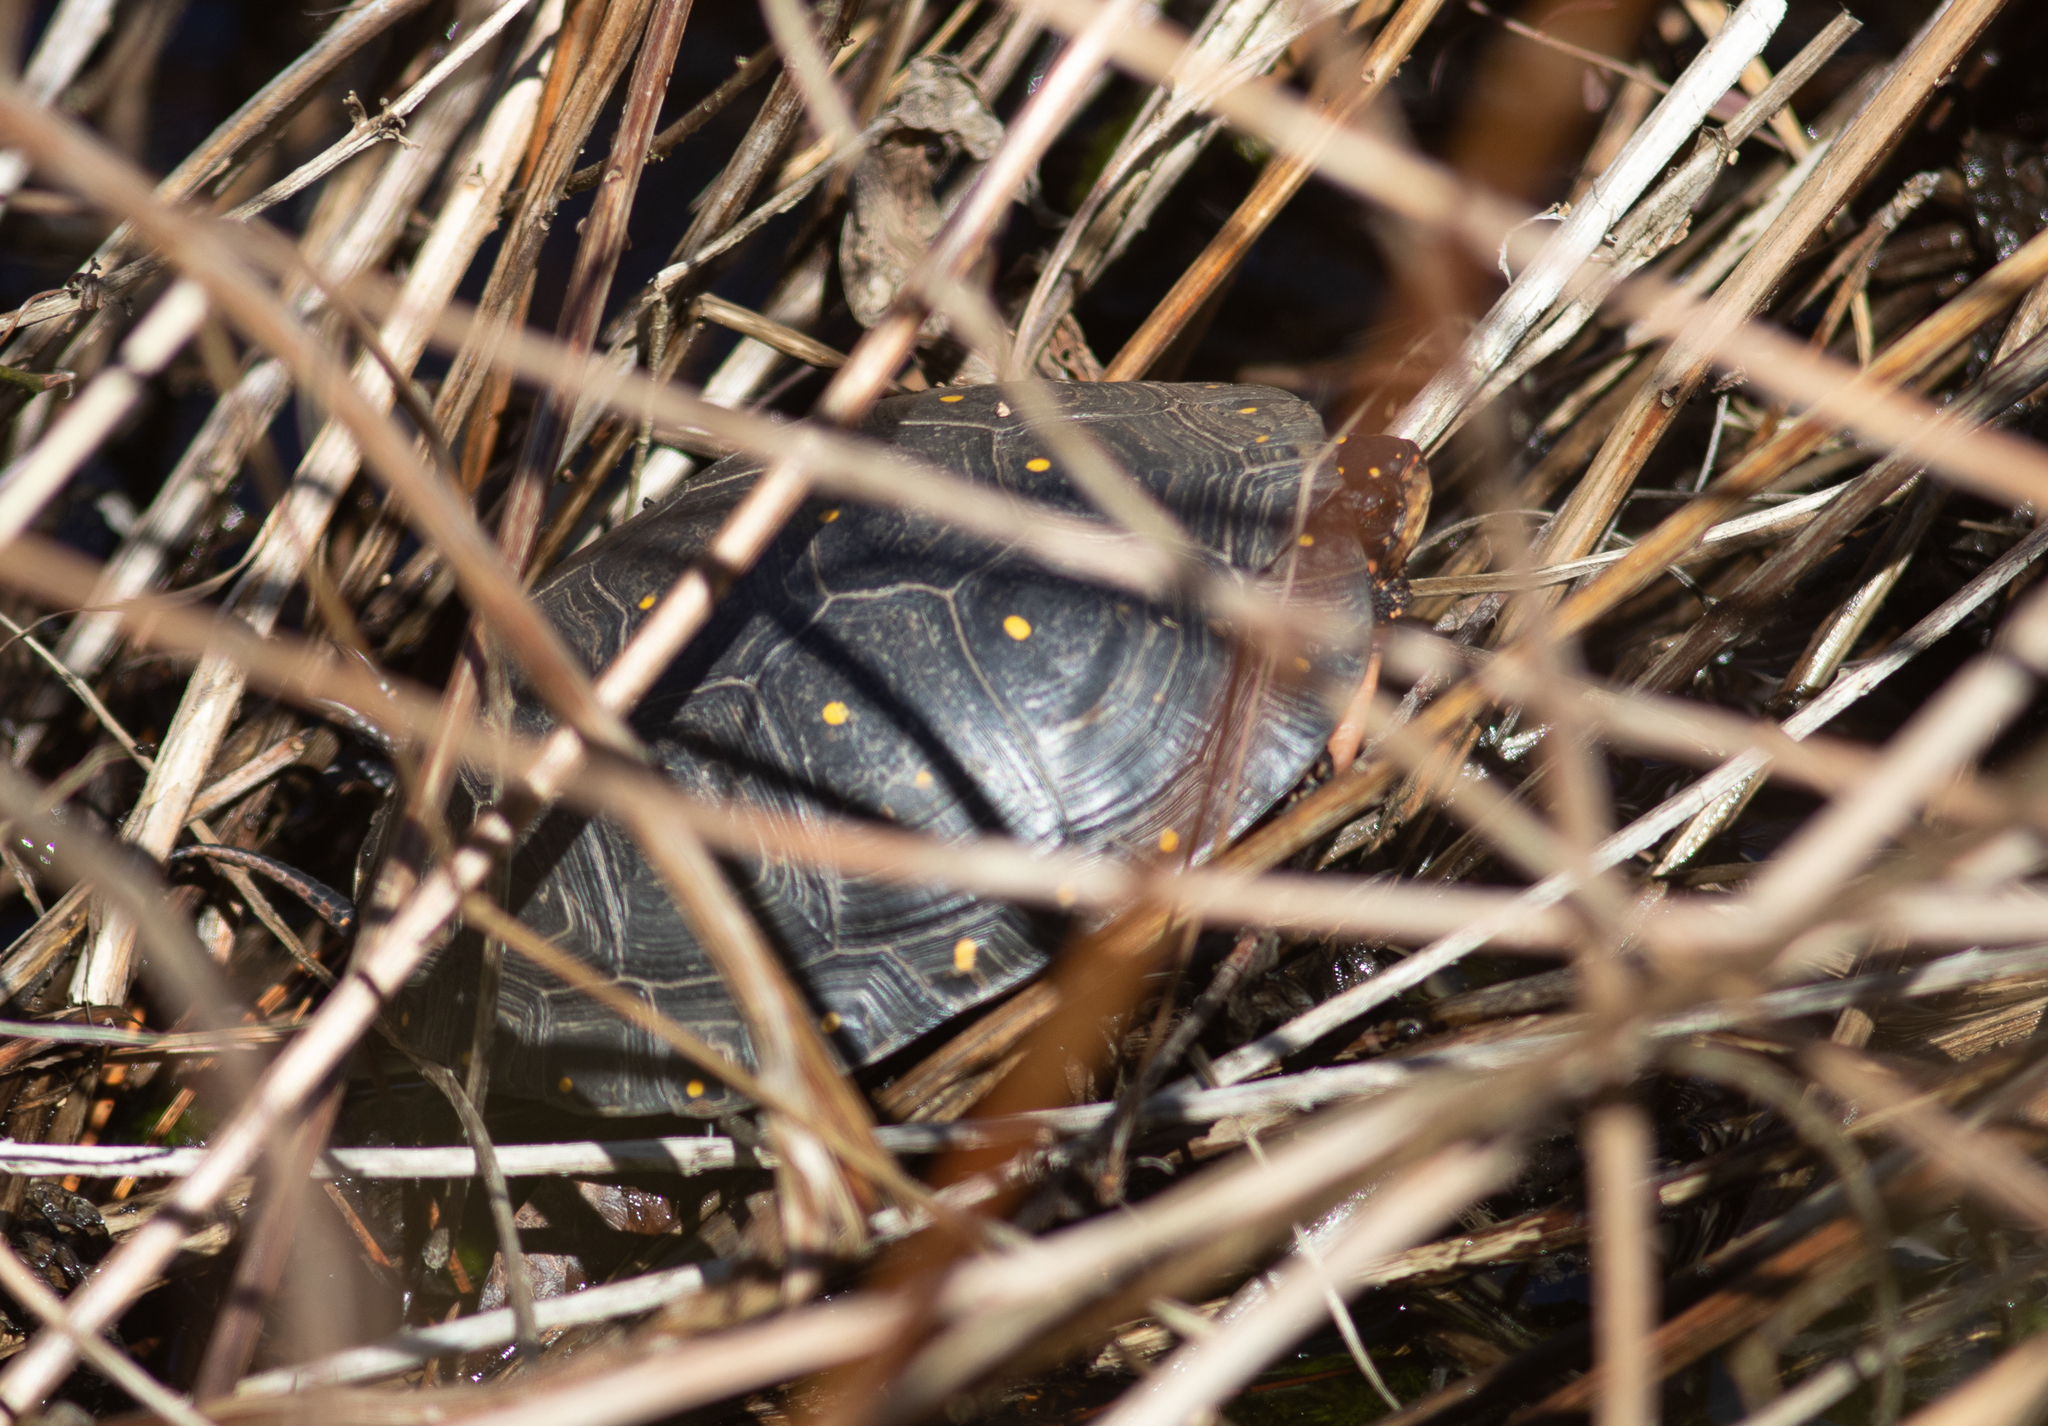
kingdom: Animalia
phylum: Chordata
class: Testudines
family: Emydidae
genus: Clemmys
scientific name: Clemmys guttata
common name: Spotted turtle
